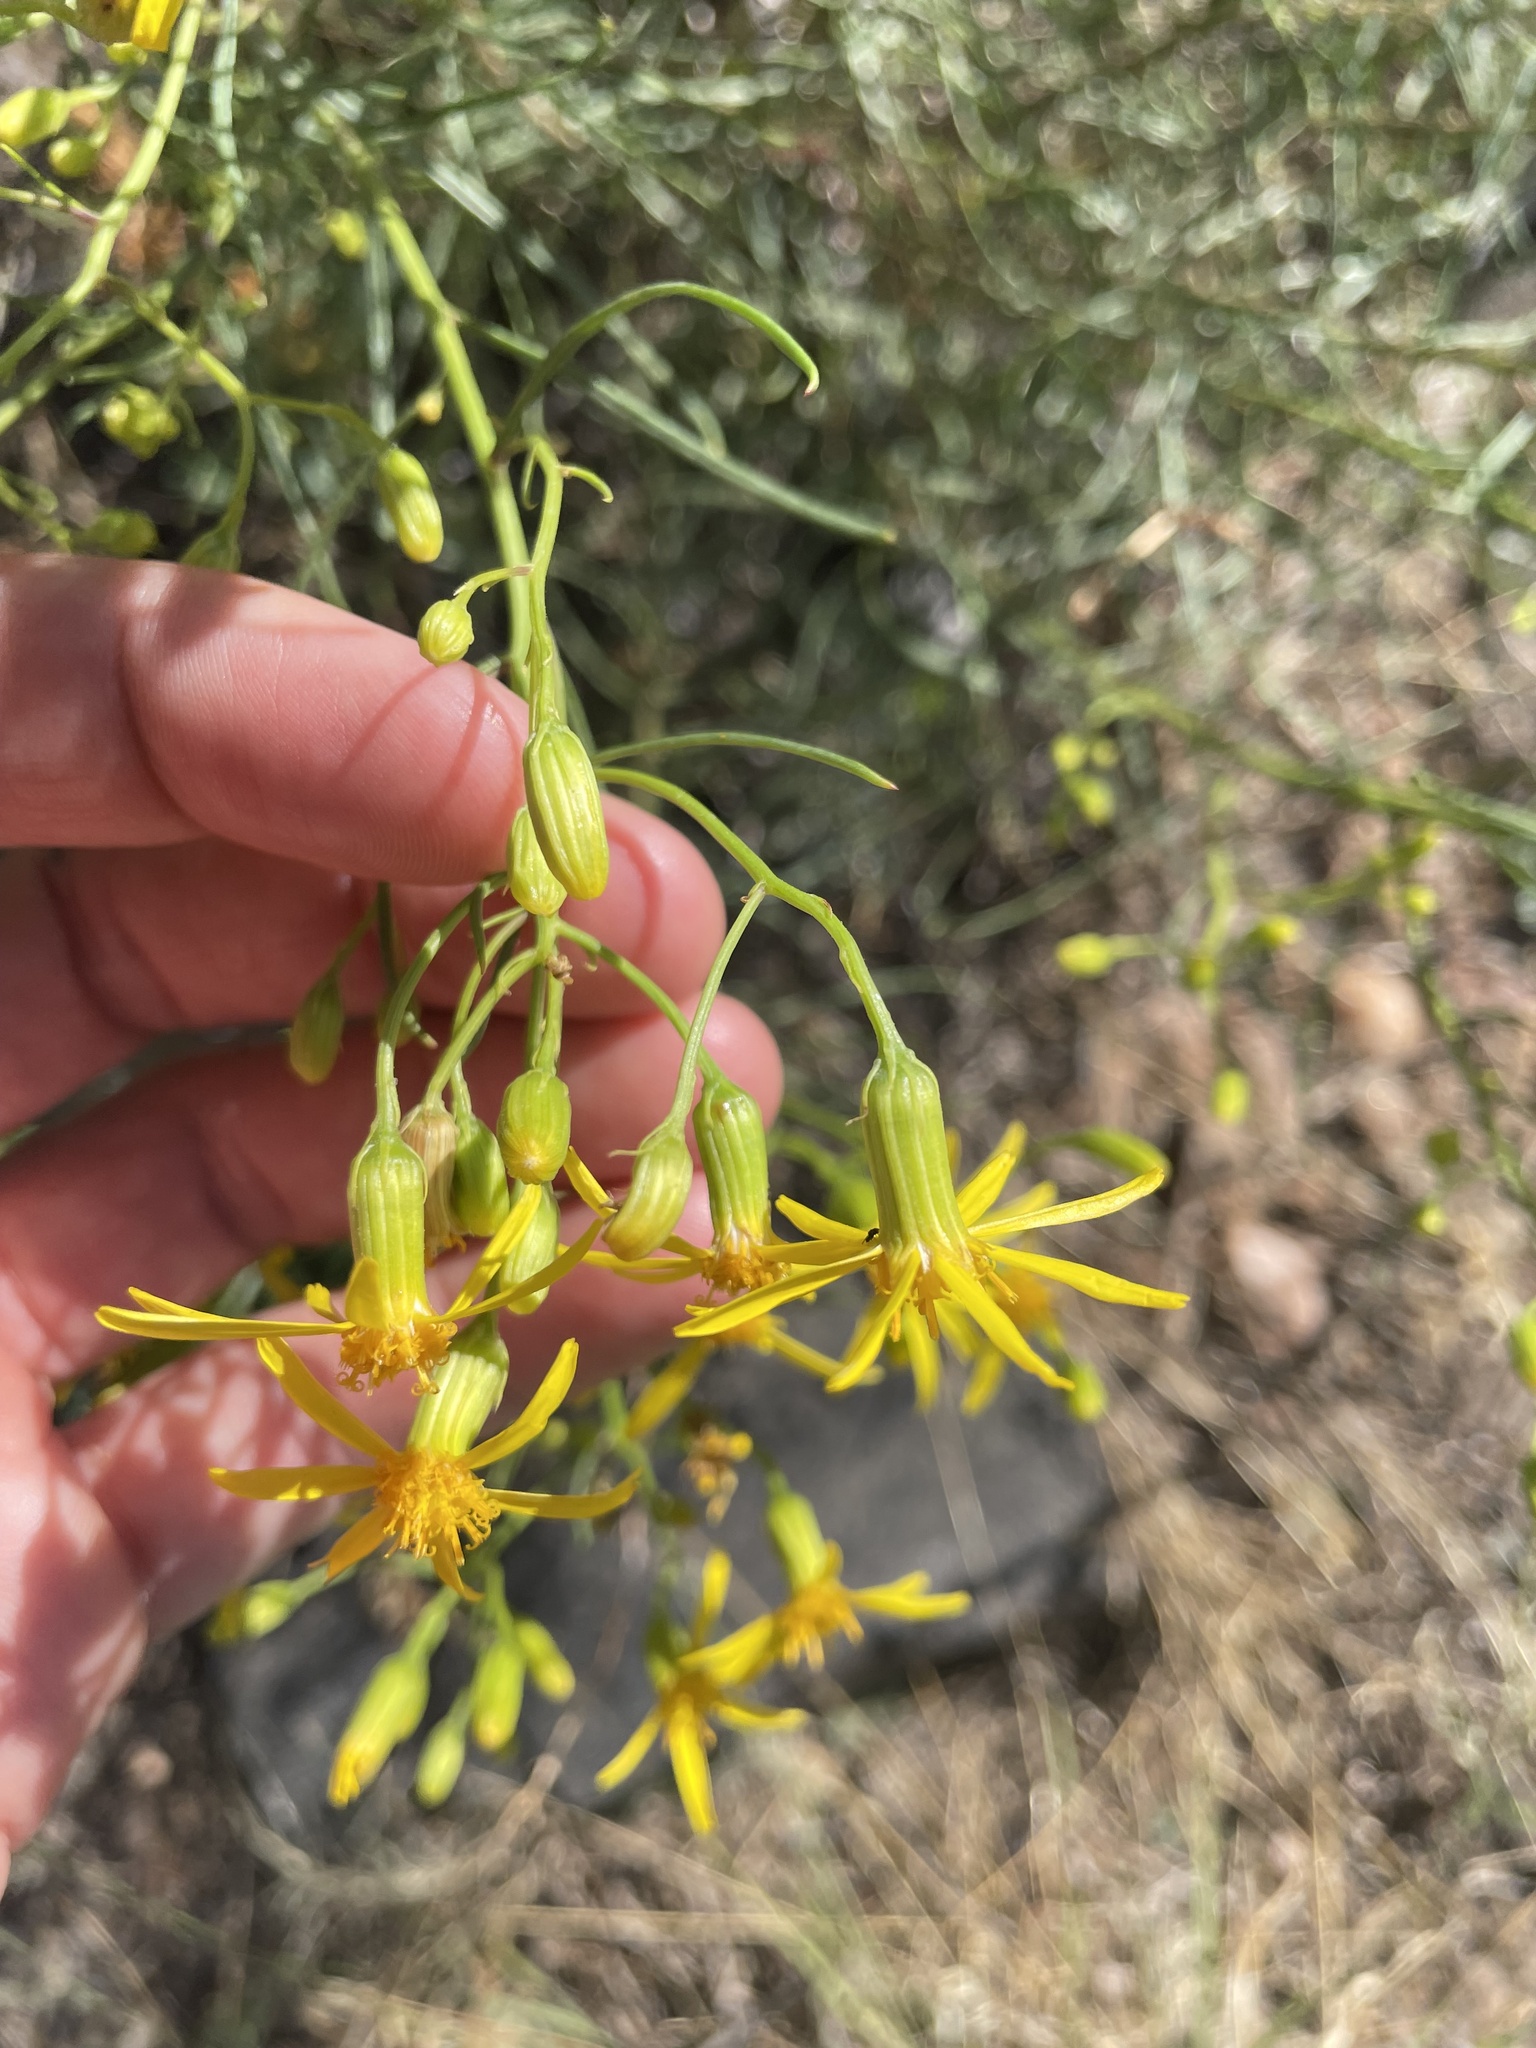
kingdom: Plantae
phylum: Tracheophyta
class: Magnoliopsida
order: Asterales
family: Asteraceae
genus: Senecio
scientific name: Senecio spartioides
